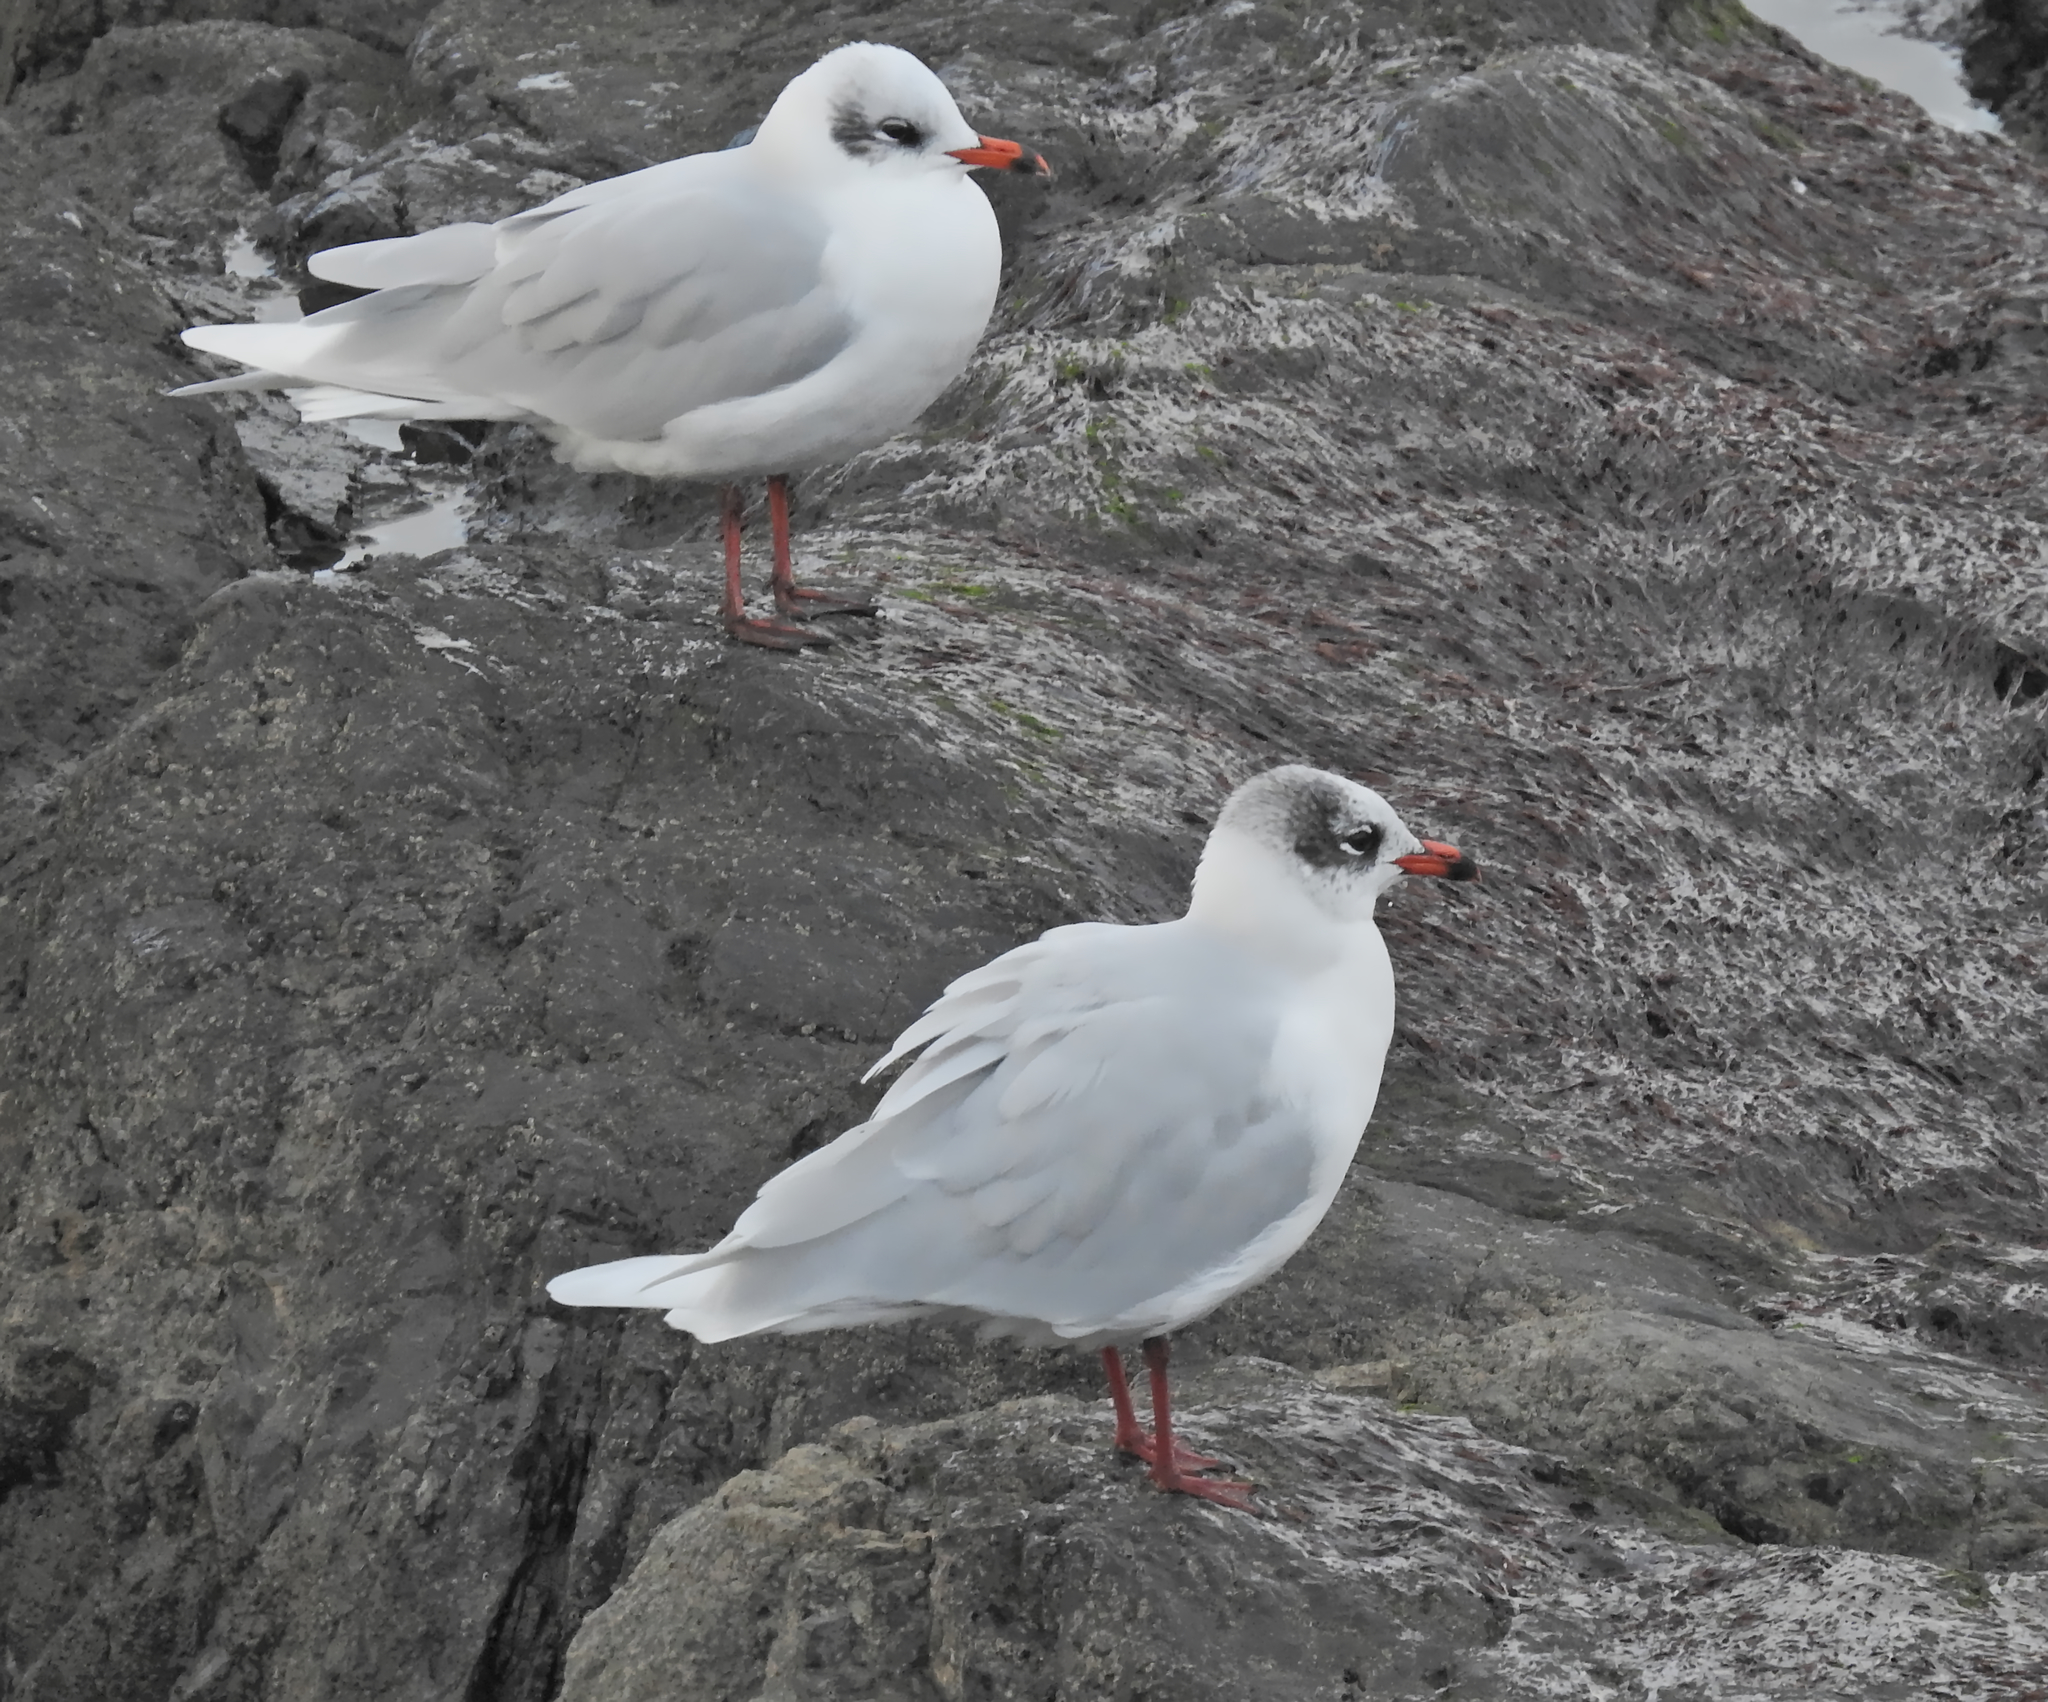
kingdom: Animalia
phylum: Chordata
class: Aves
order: Charadriiformes
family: Laridae
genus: Ichthyaetus
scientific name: Ichthyaetus melanocephalus
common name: Mediterranean gull
